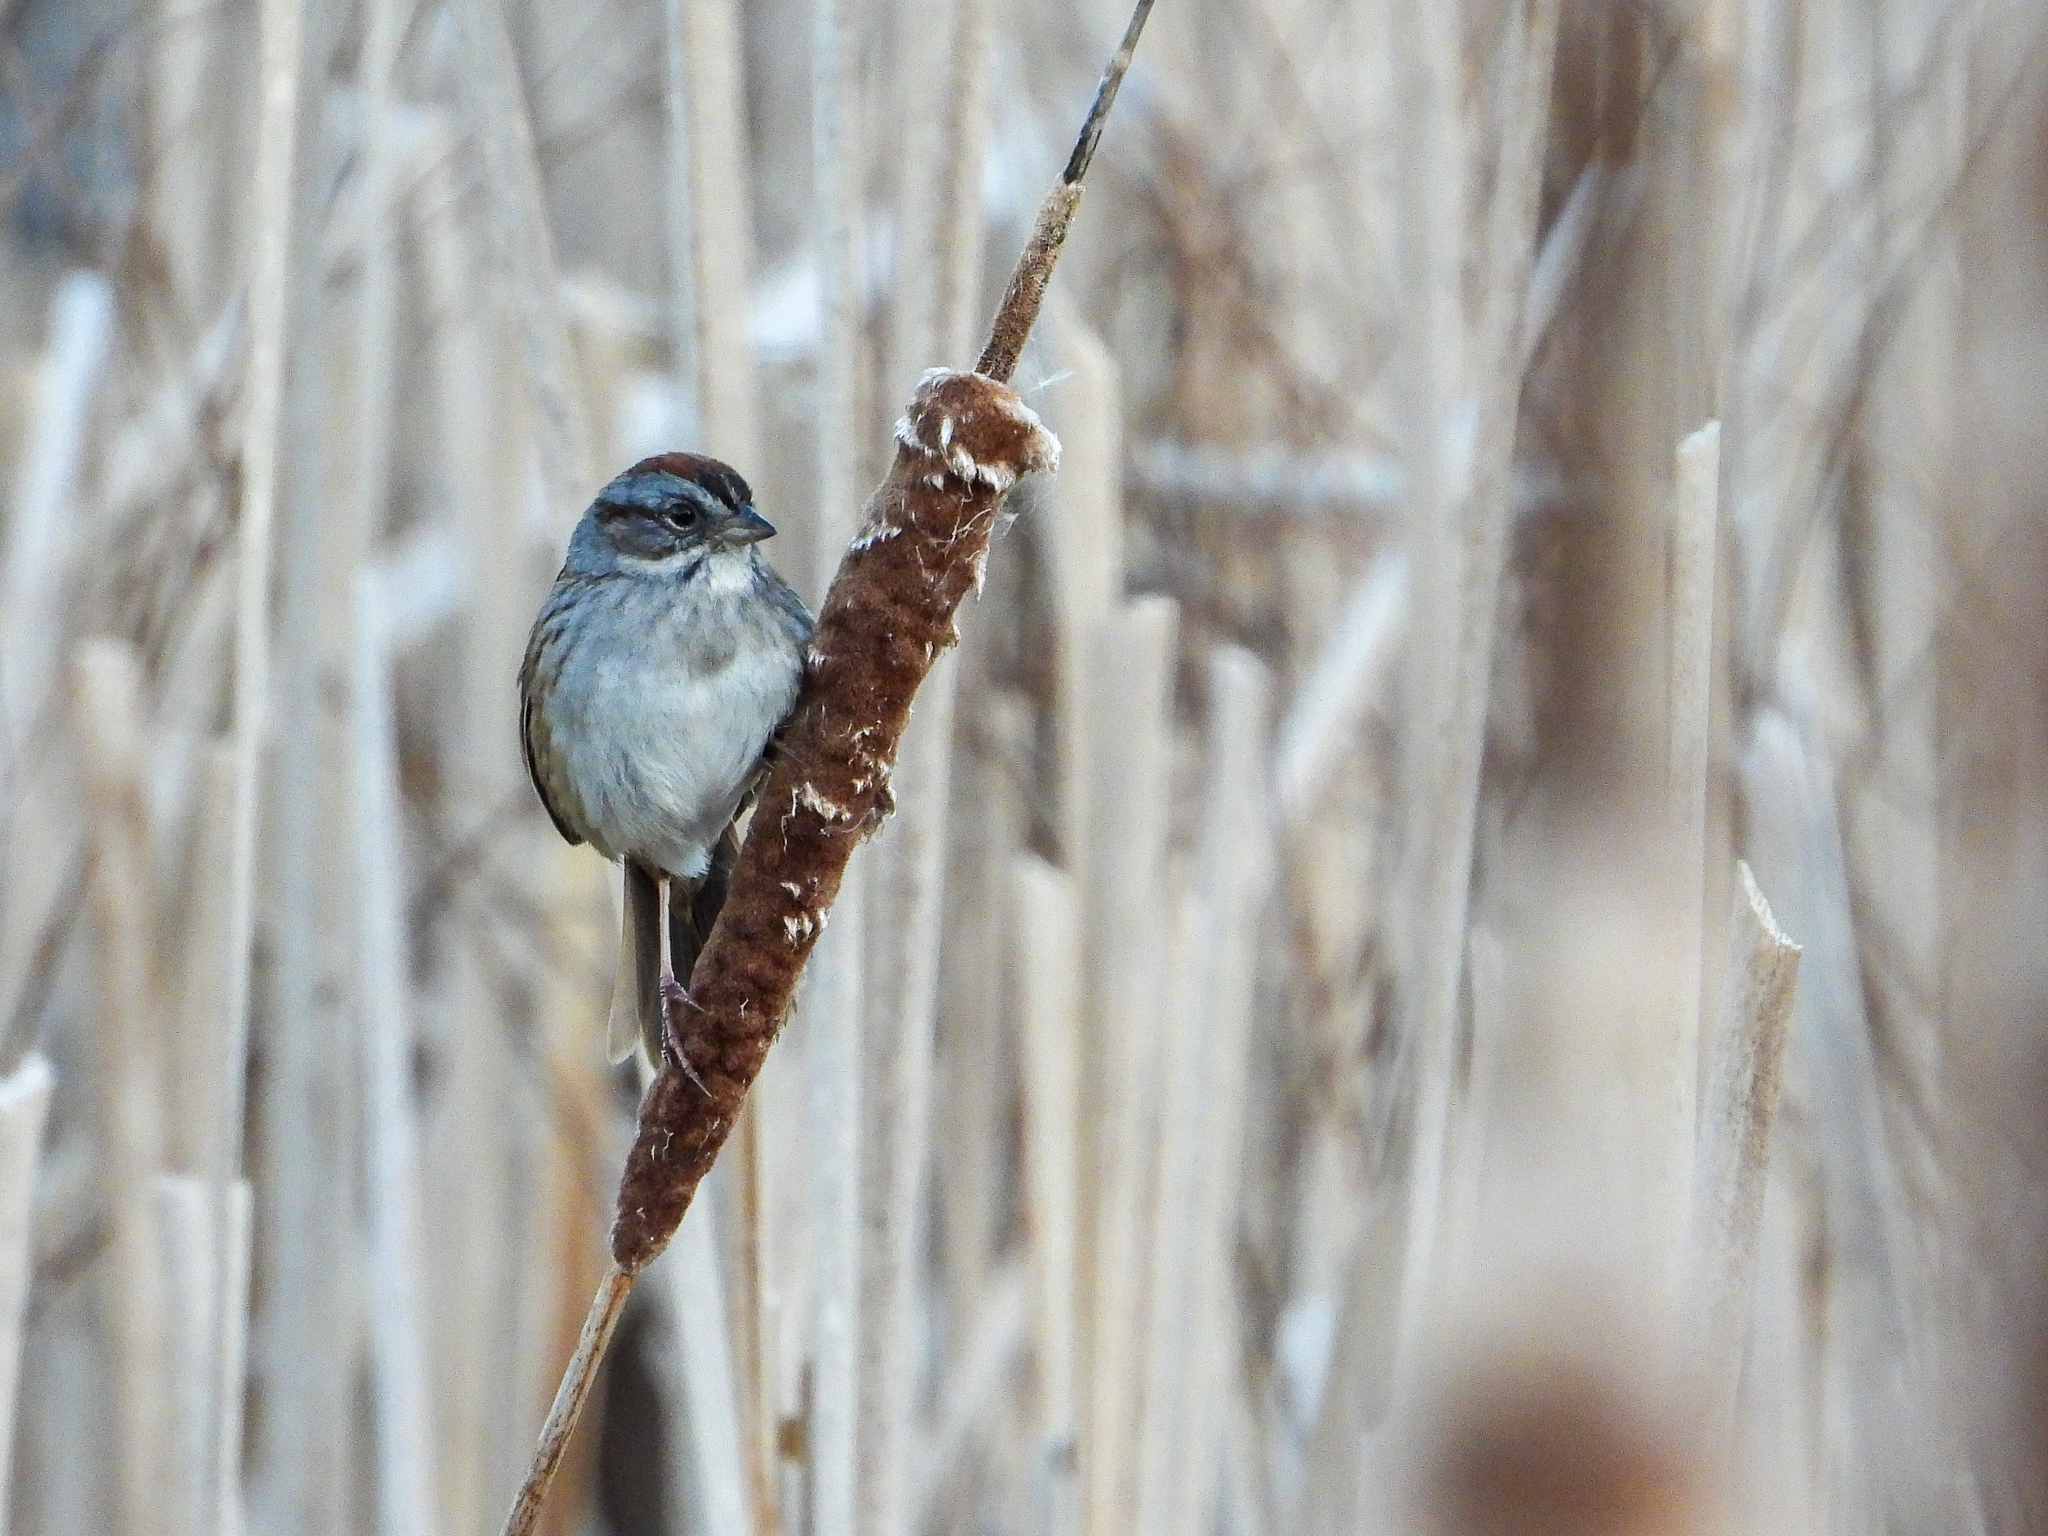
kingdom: Animalia
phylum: Chordata
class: Aves
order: Passeriformes
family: Passerellidae
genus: Melospiza
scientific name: Melospiza georgiana
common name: Swamp sparrow
